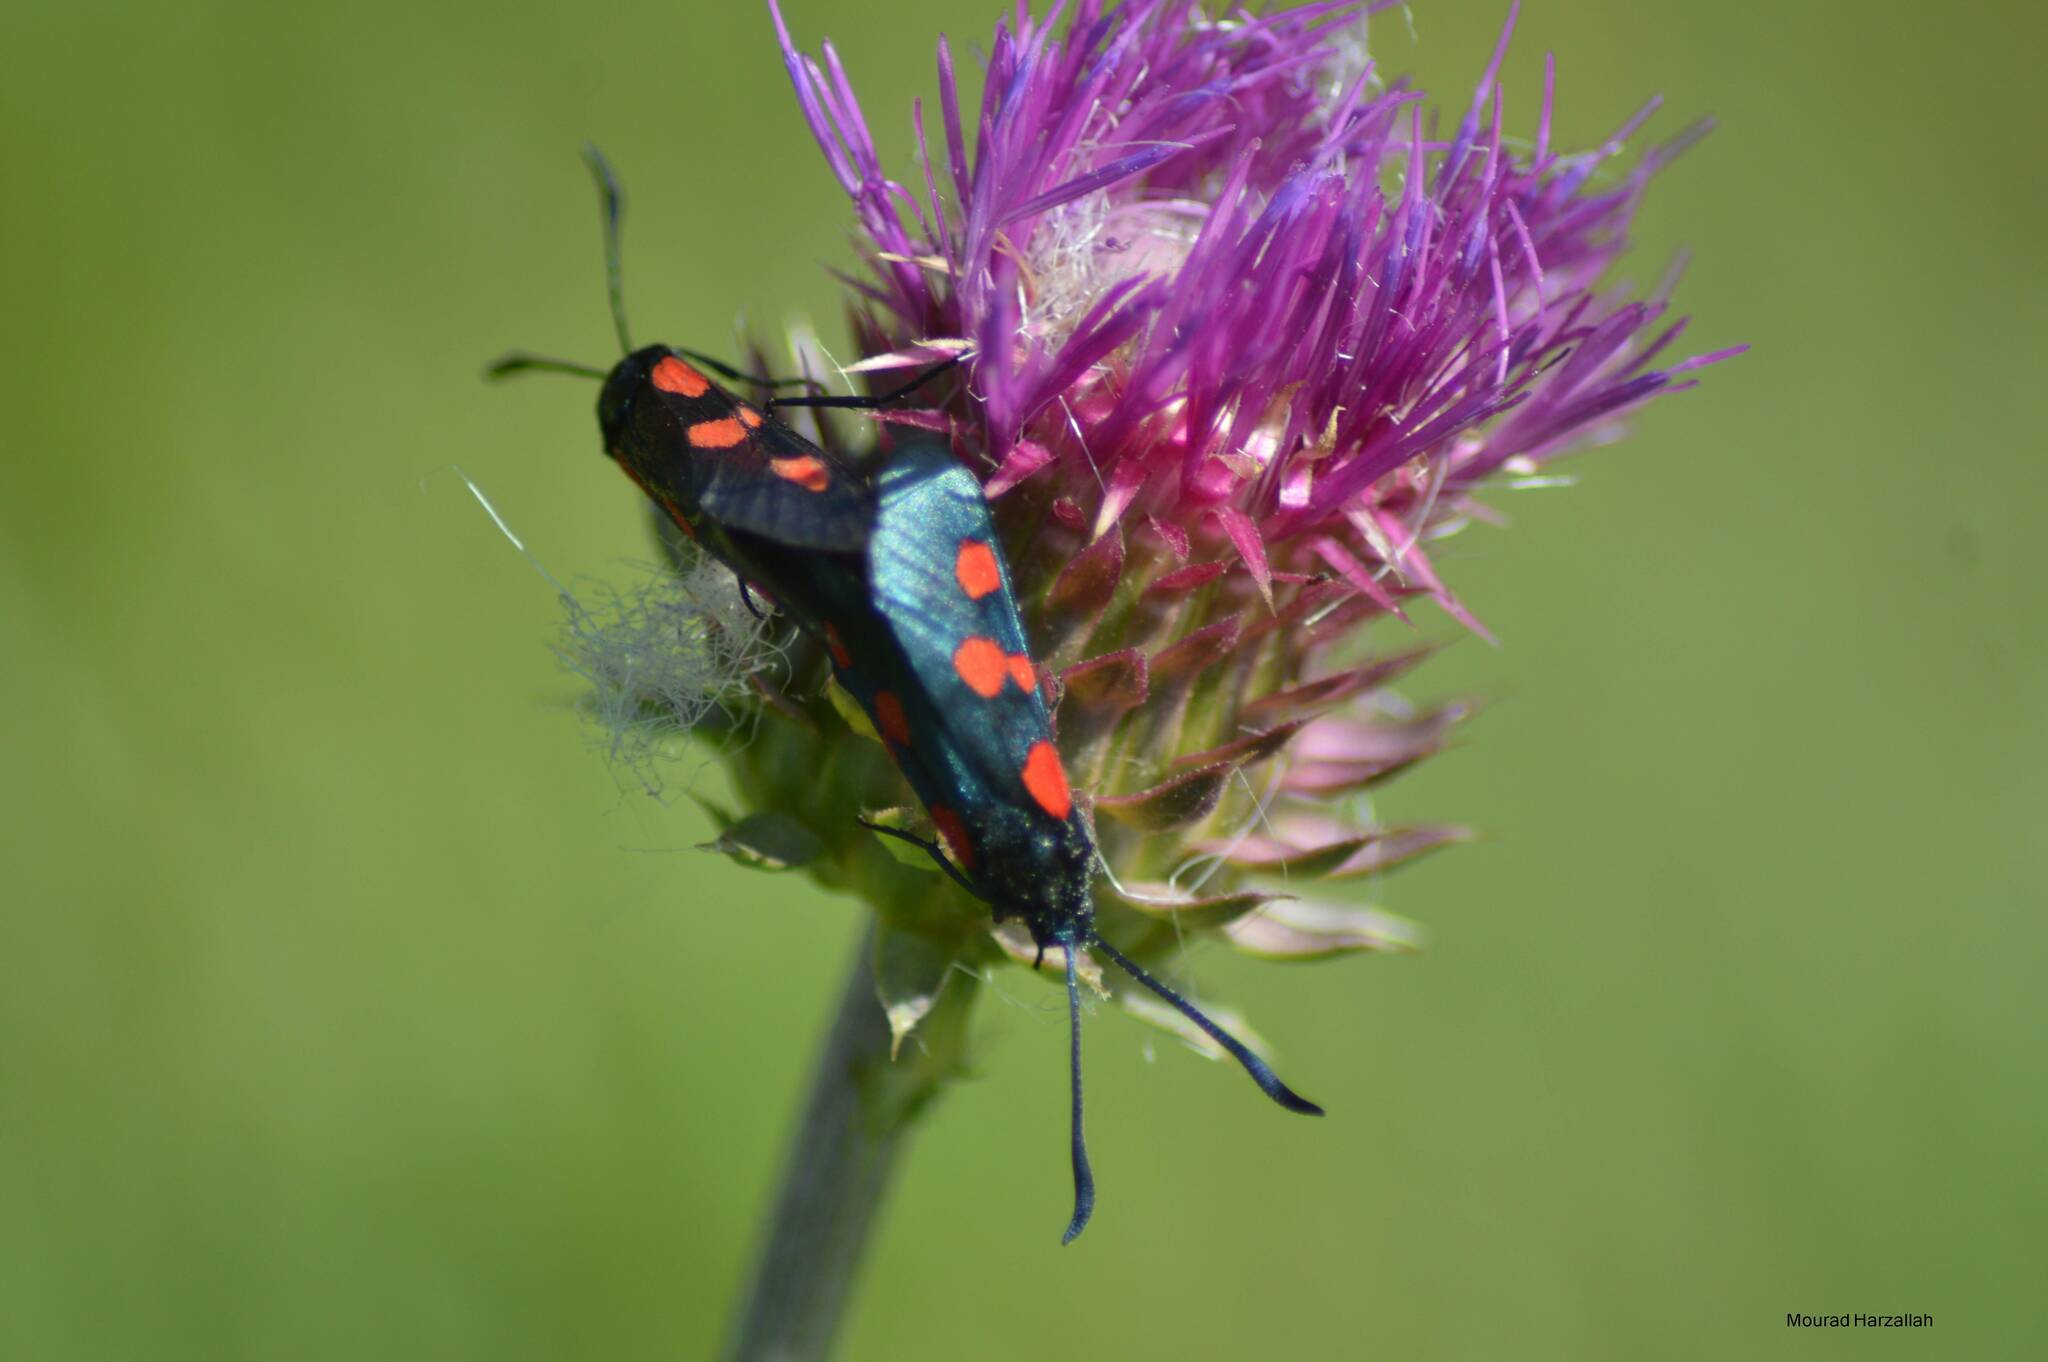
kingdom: Animalia
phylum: Arthropoda
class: Insecta
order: Lepidoptera
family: Zygaenidae
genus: Zygaena
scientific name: Zygaena trifolii
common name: Five-spot burnet
